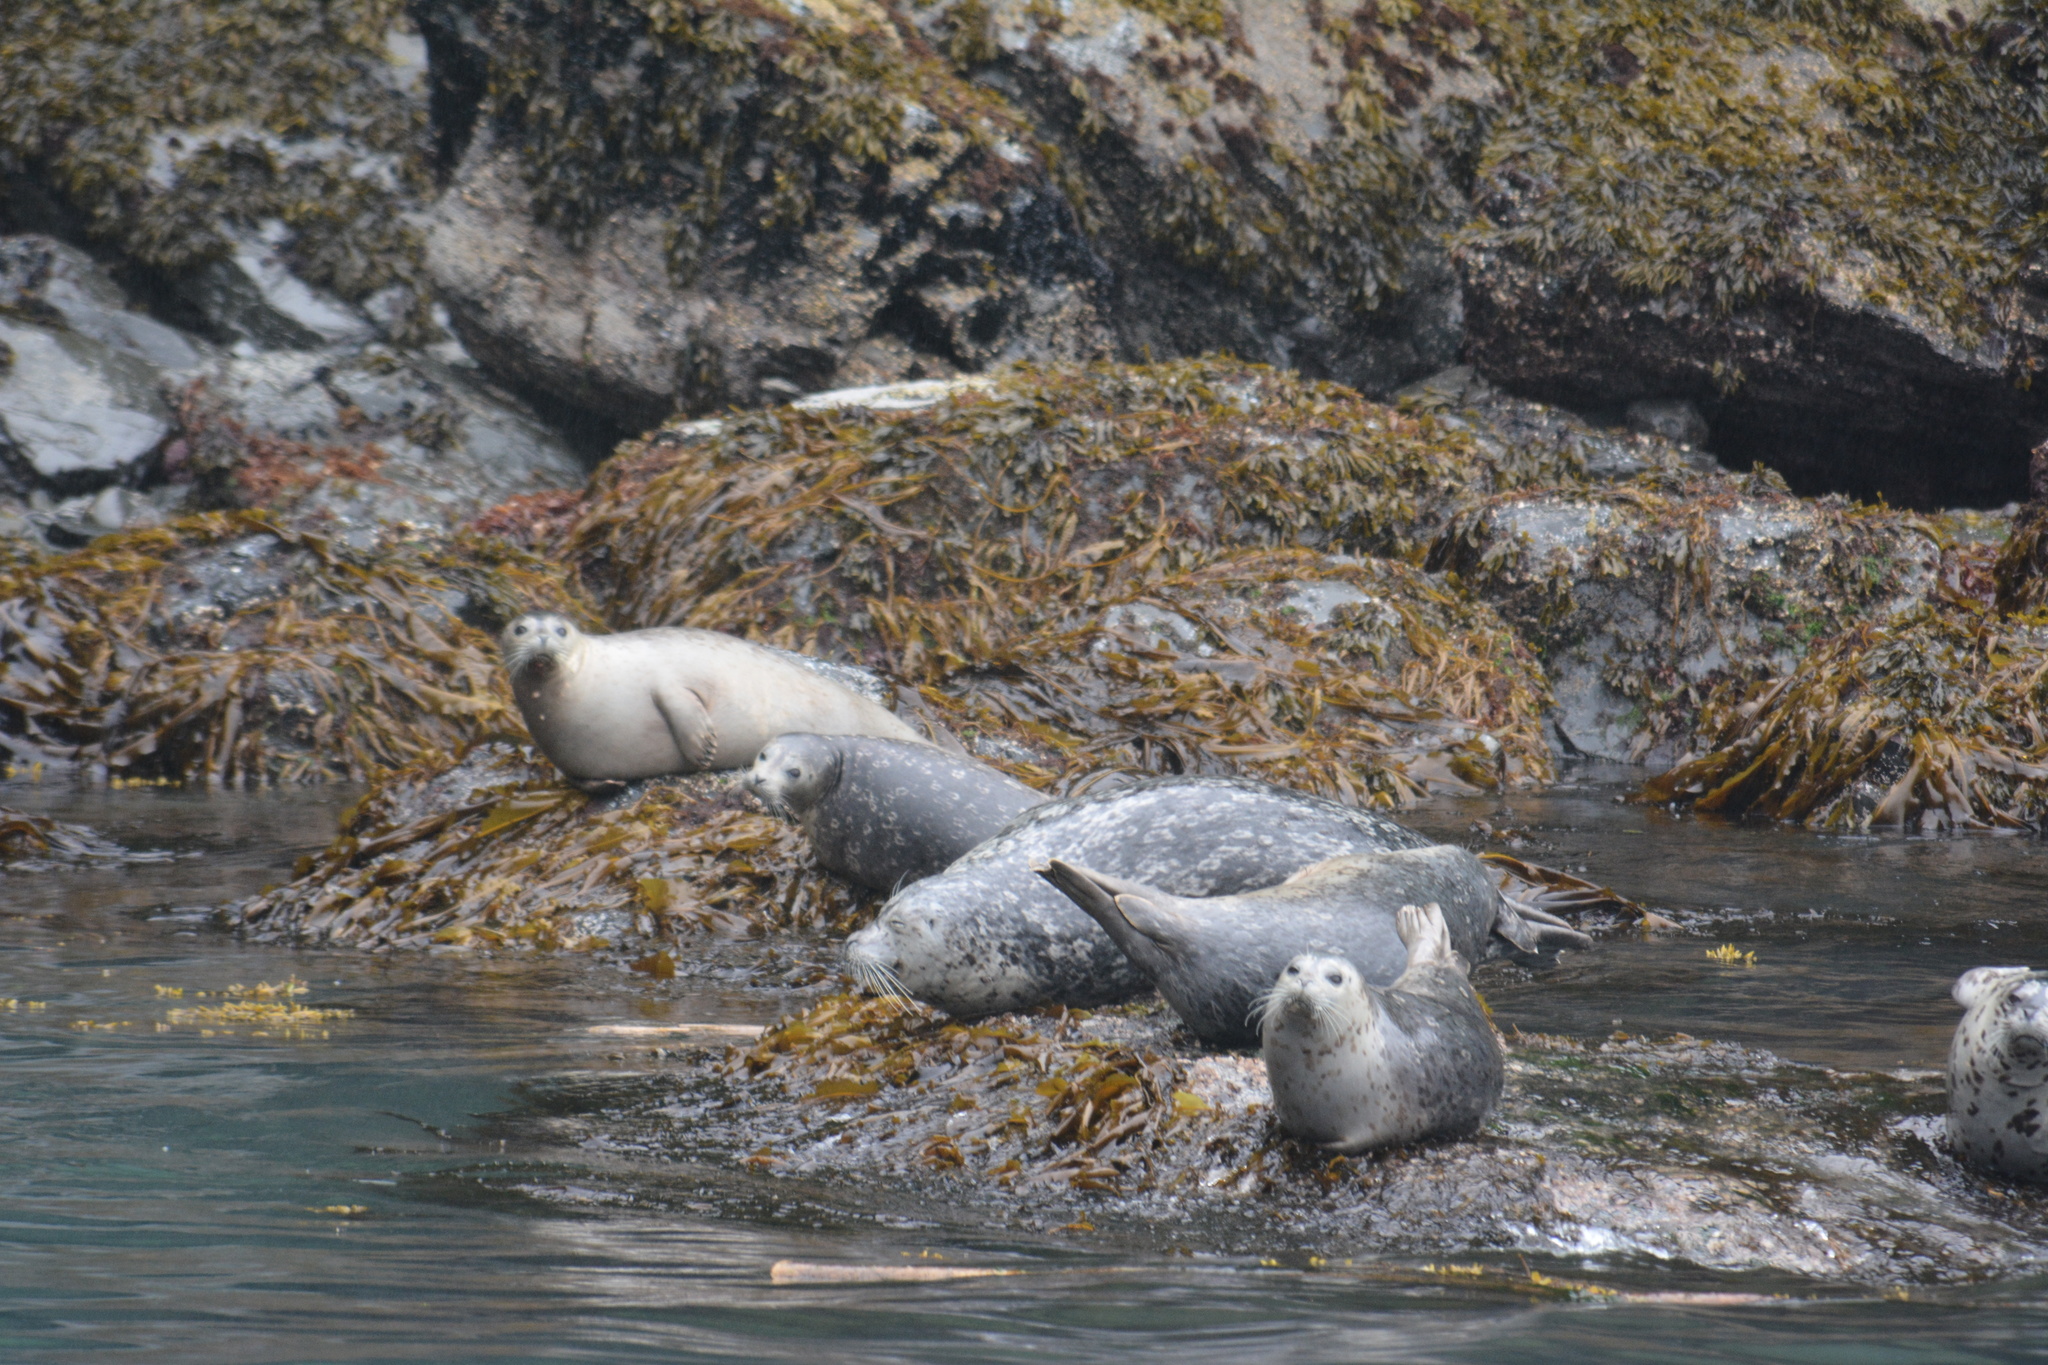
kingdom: Animalia
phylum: Chordata
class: Mammalia
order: Carnivora
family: Phocidae
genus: Phoca
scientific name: Phoca vitulina
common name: Harbor seal
